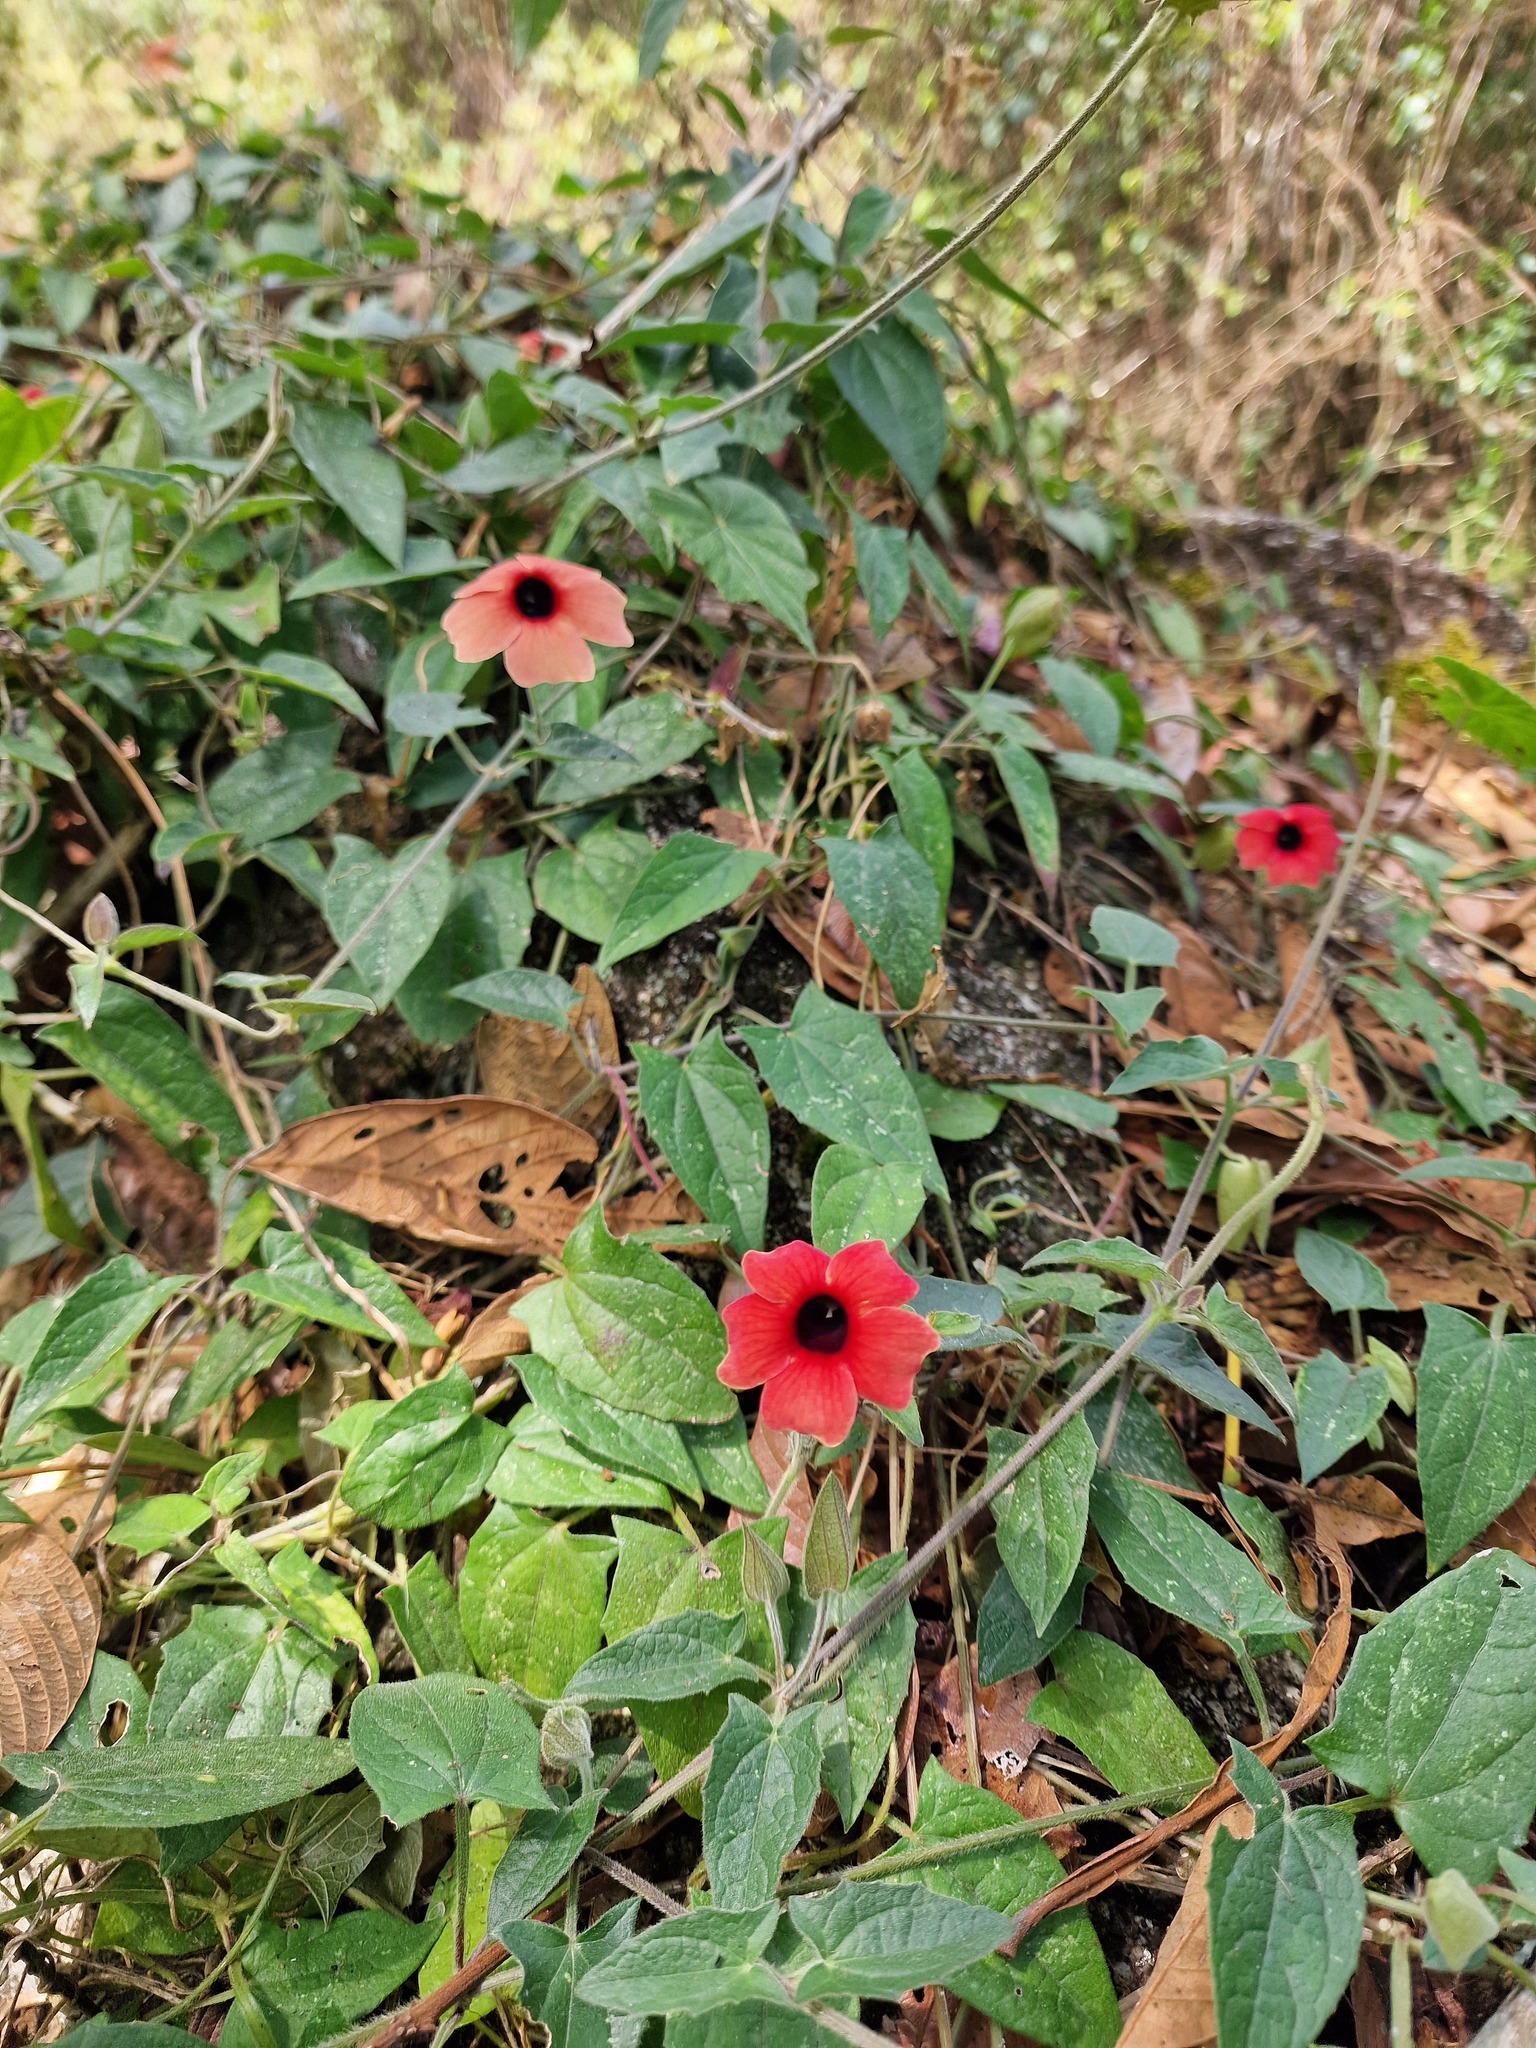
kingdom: Plantae
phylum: Tracheophyta
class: Magnoliopsida
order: Lamiales
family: Acanthaceae
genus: Thunbergia
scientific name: Thunbergia alata
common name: Blackeyed susan vine
